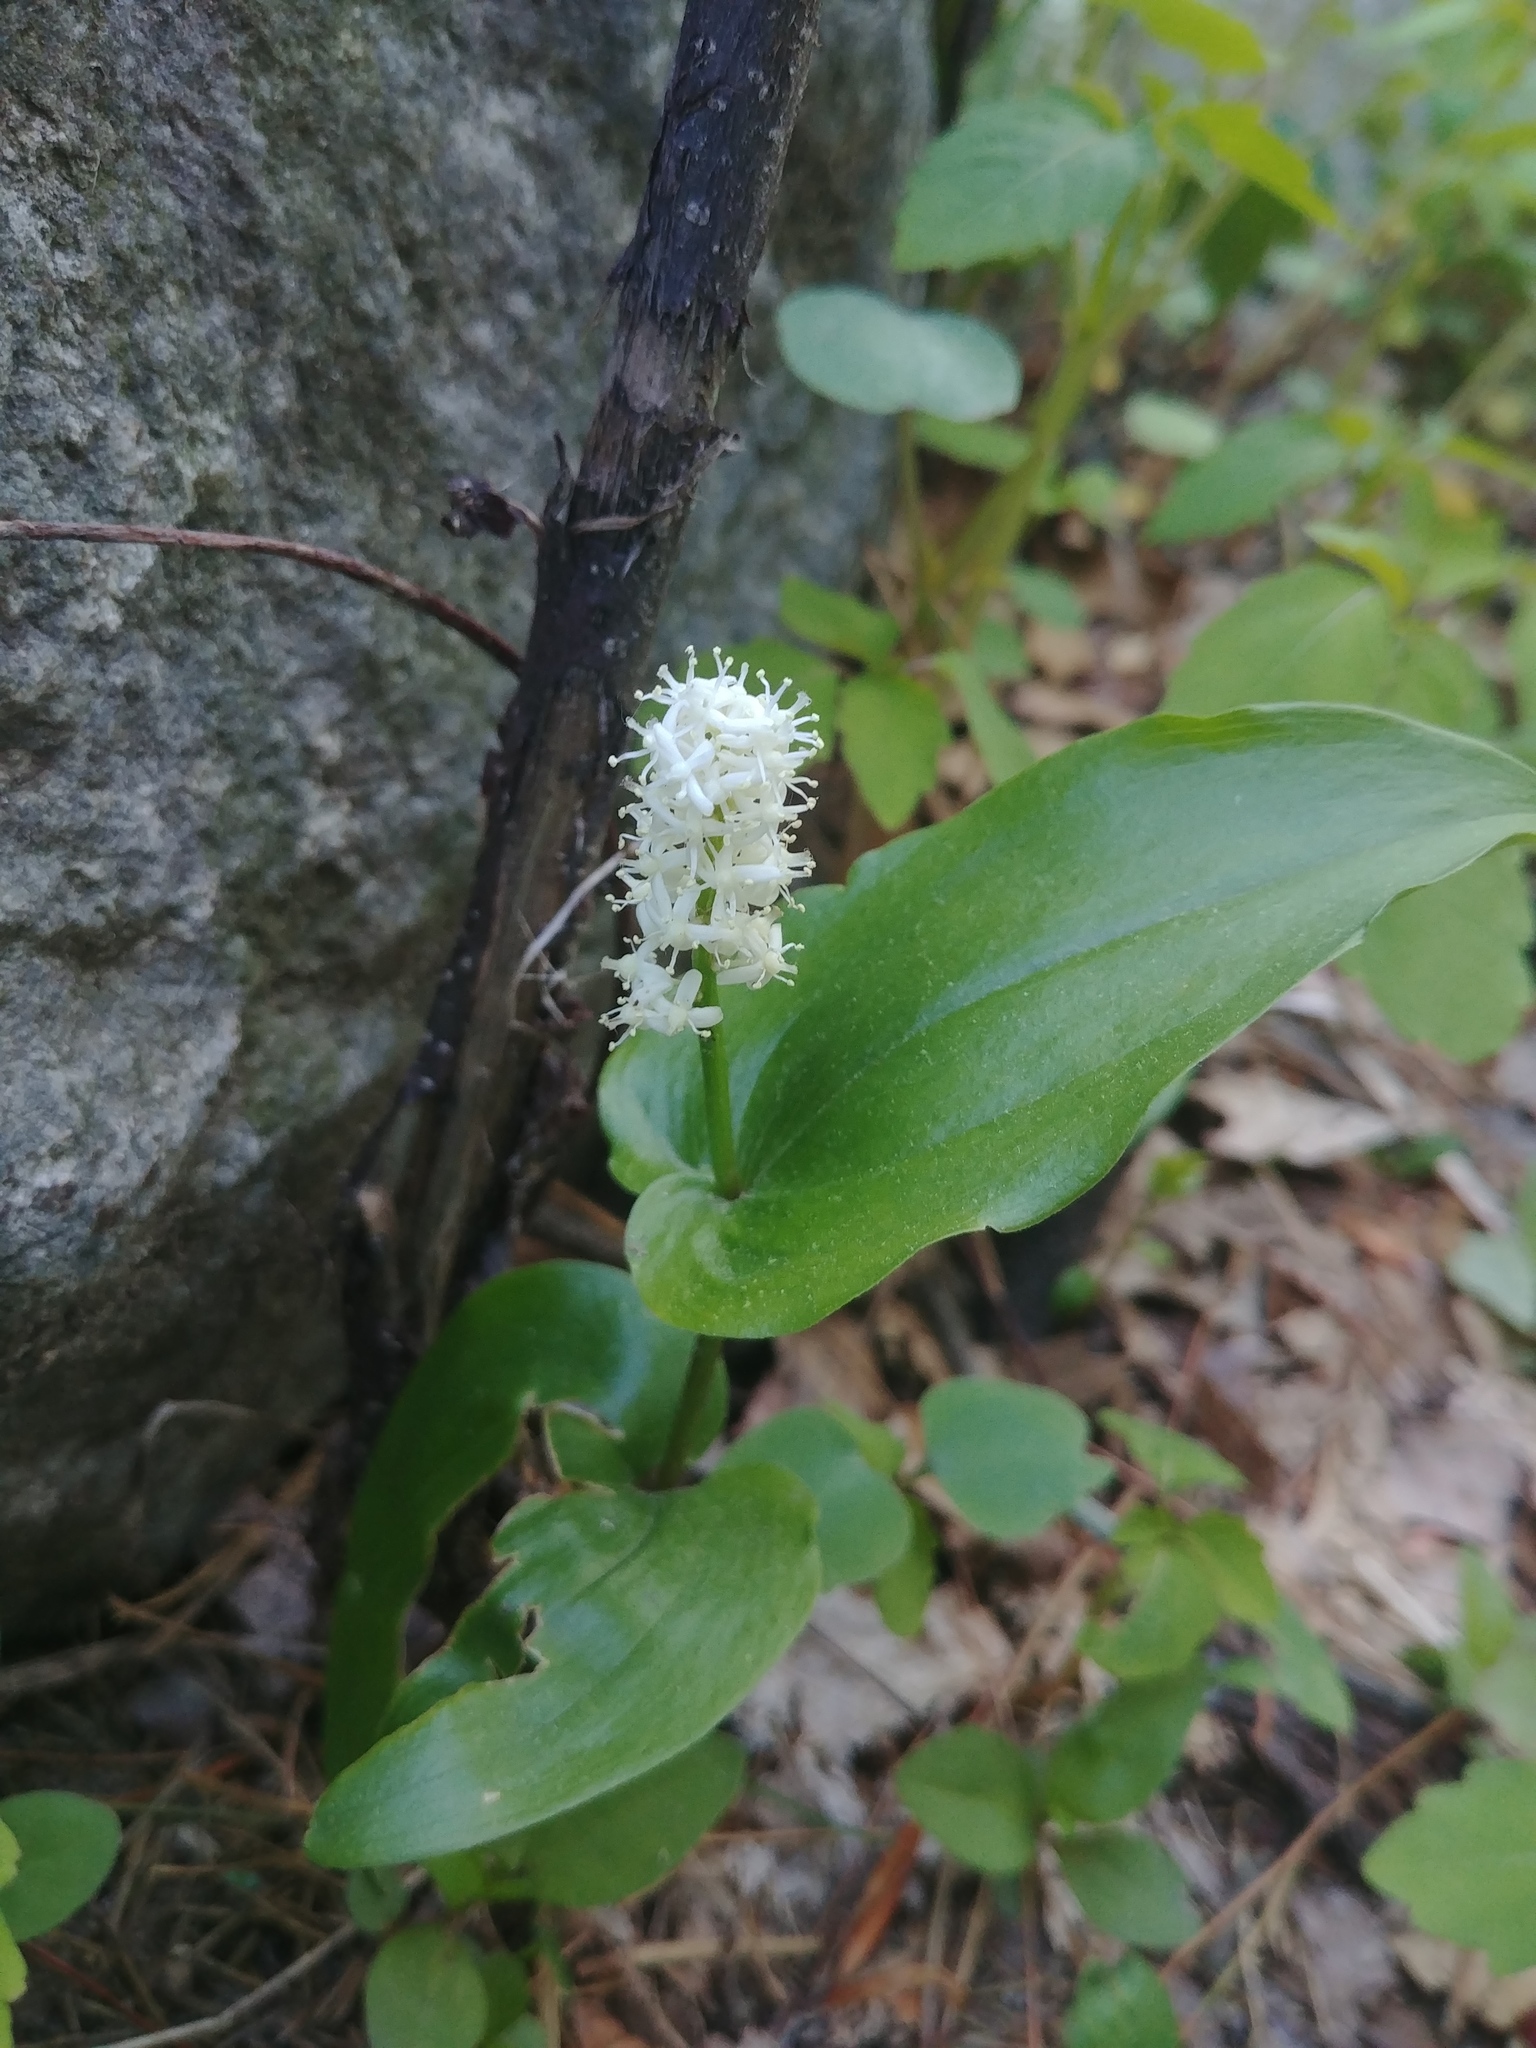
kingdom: Plantae
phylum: Tracheophyta
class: Liliopsida
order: Asparagales
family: Asparagaceae
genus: Maianthemum
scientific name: Maianthemum canadense
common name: False lily-of-the-valley
